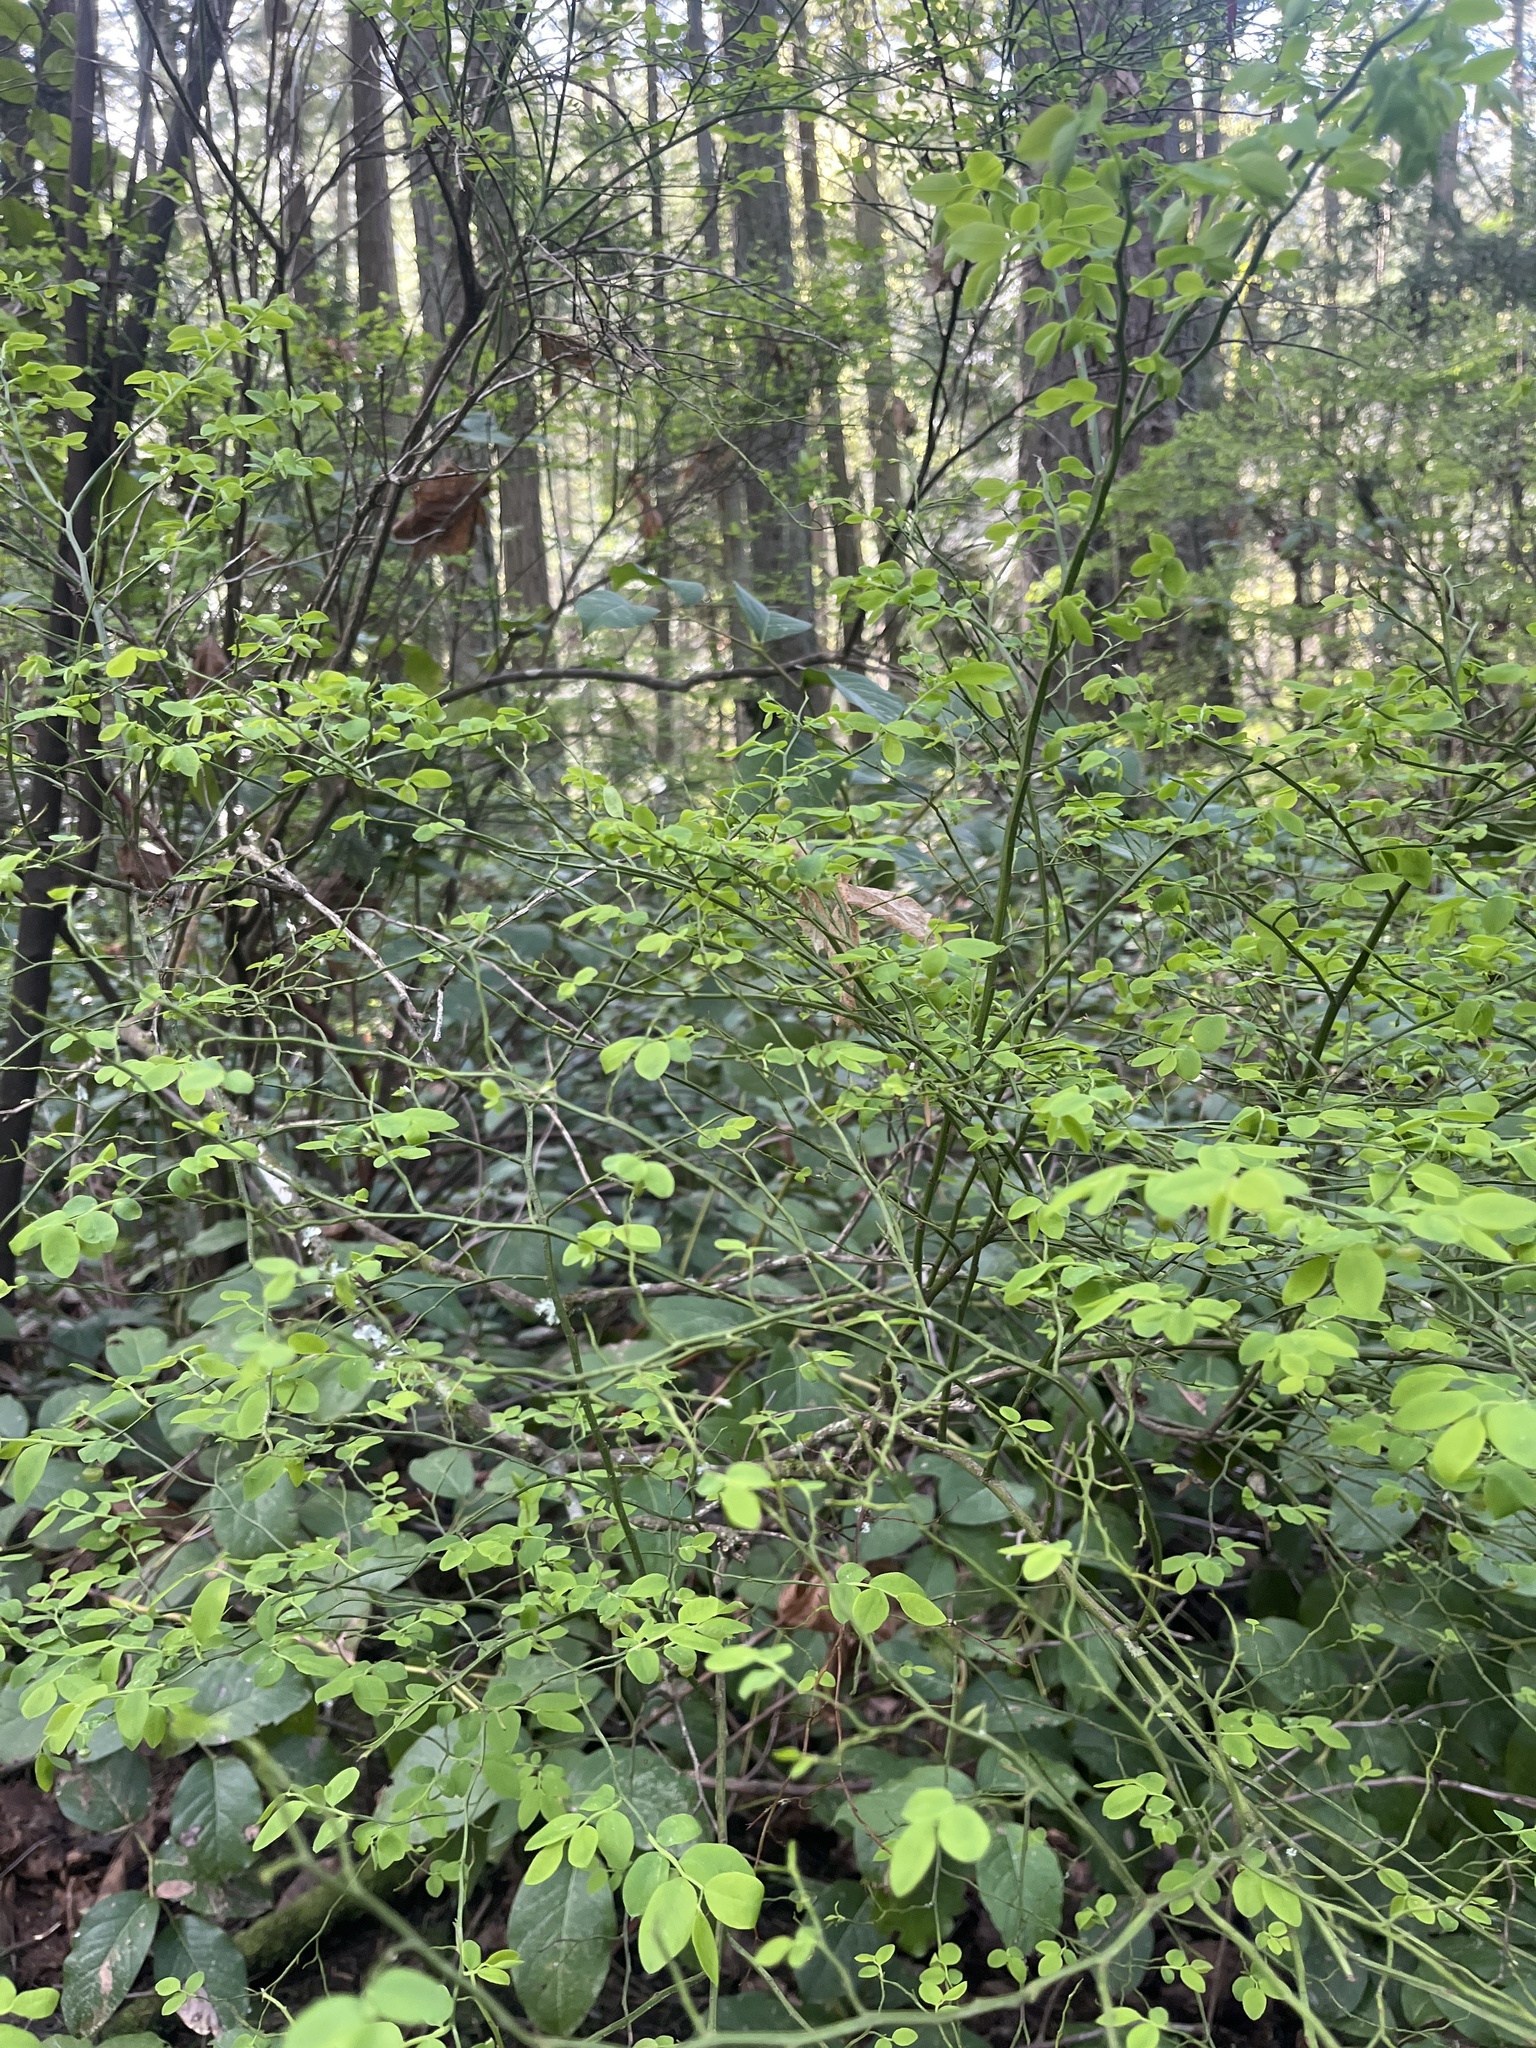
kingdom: Plantae
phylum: Tracheophyta
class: Magnoliopsida
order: Ericales
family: Ericaceae
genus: Vaccinium
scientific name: Vaccinium parvifolium
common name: Red-huckleberry
